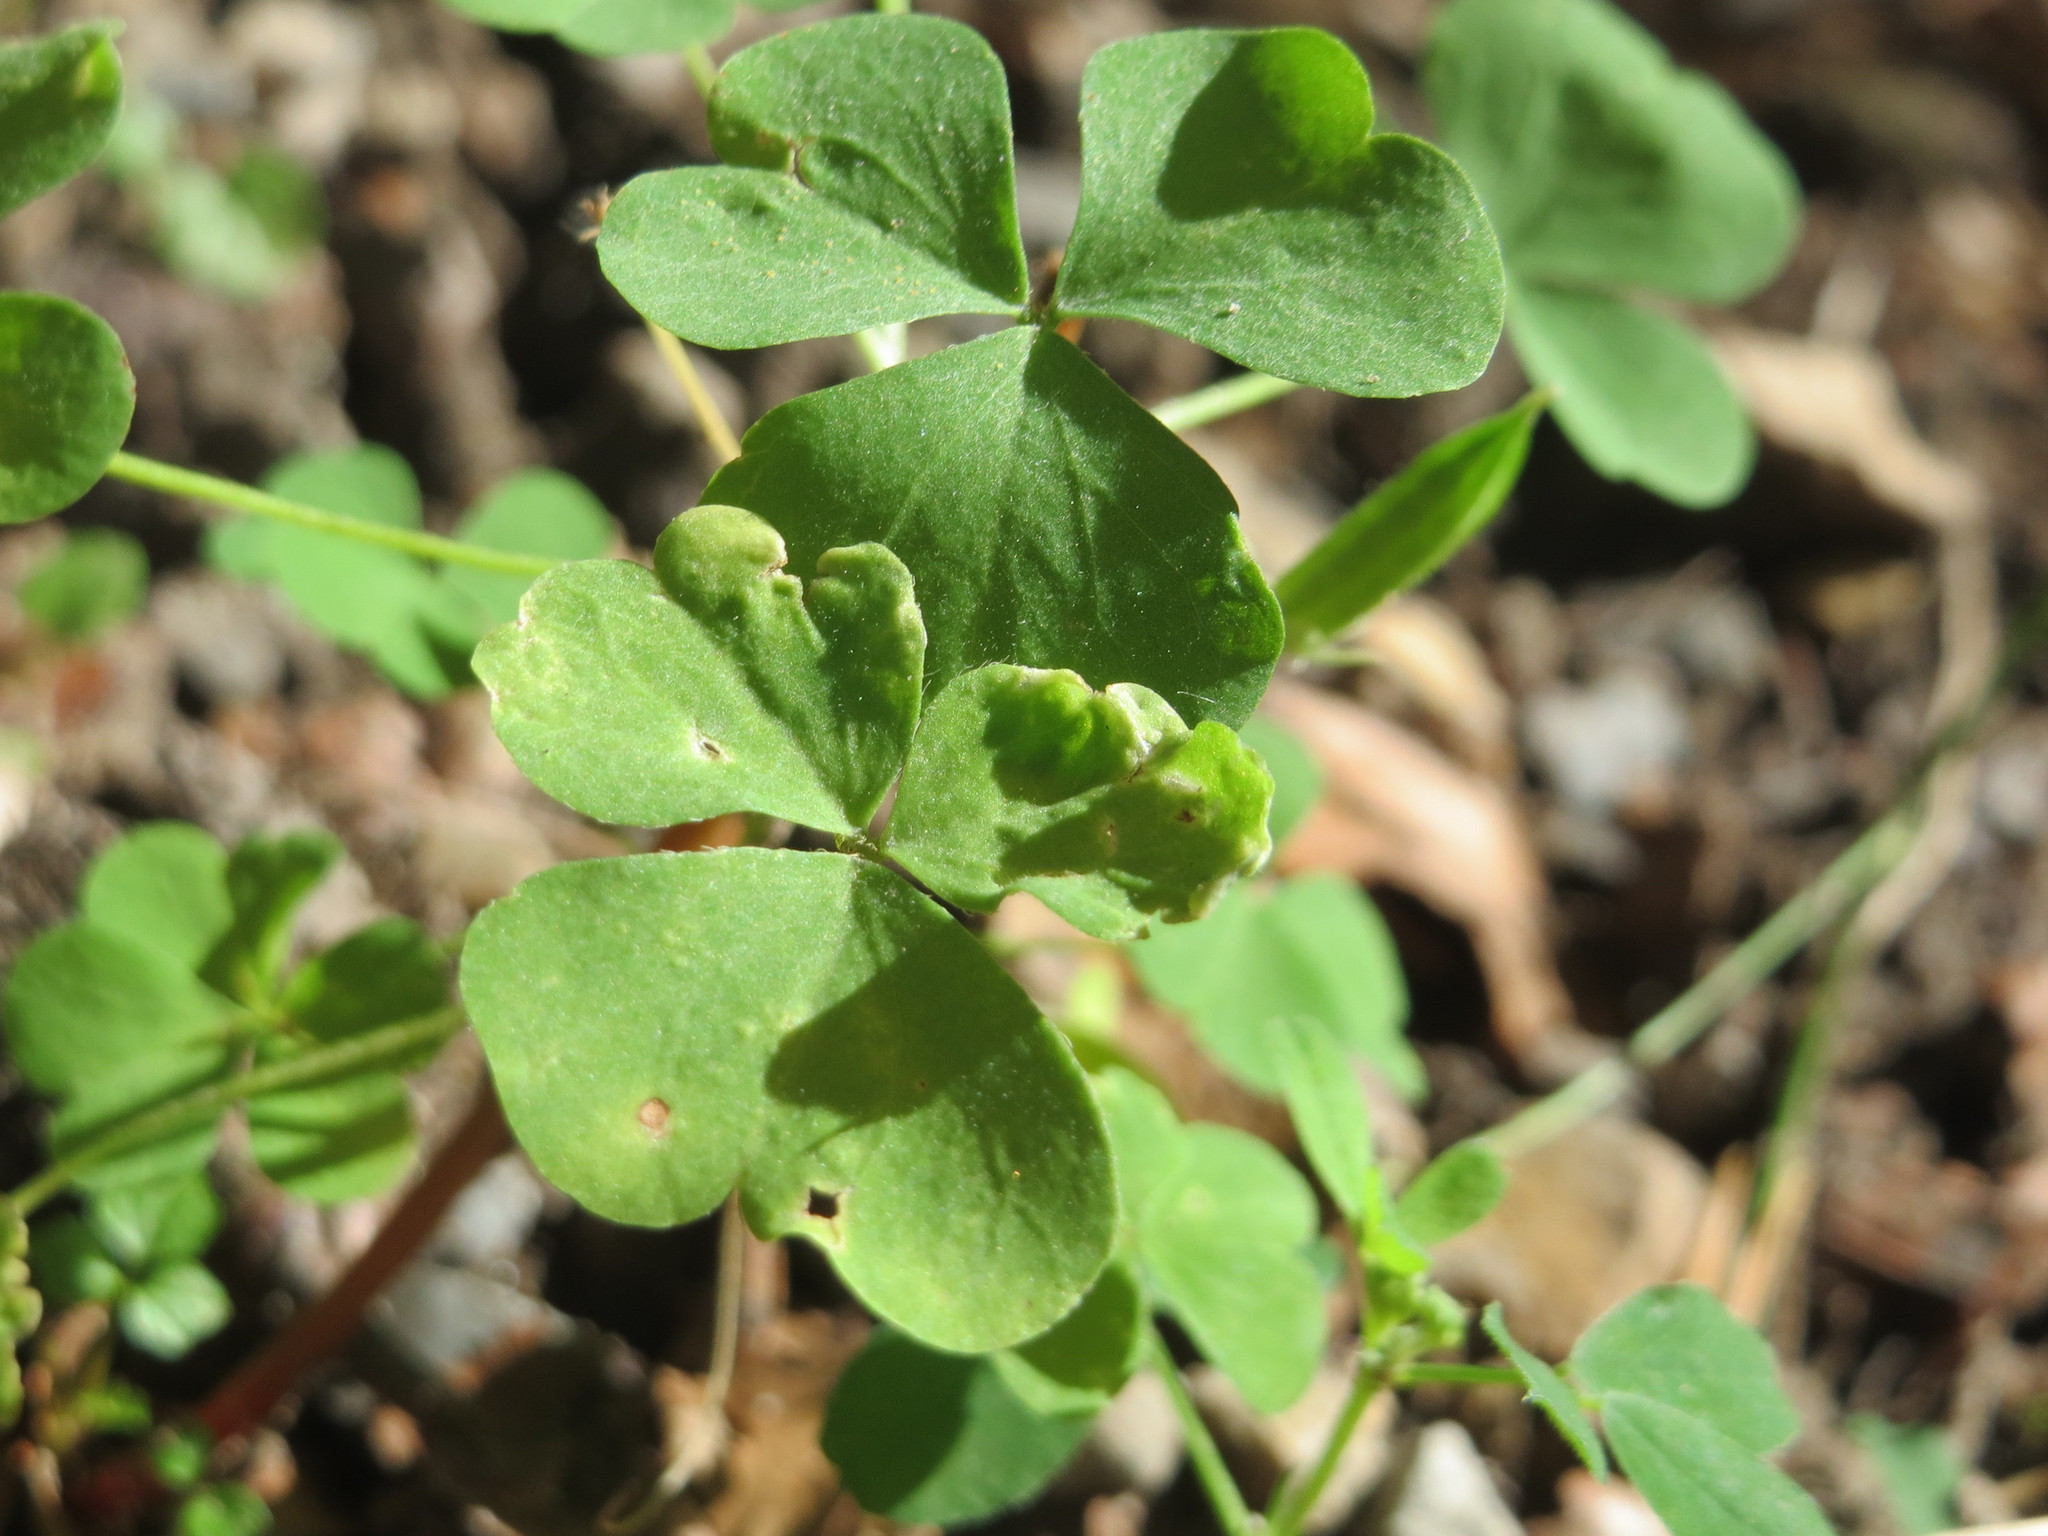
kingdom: Plantae
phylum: Tracheophyta
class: Magnoliopsida
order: Oxalidales
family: Oxalidaceae
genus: Oxalis
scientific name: Oxalis stricta
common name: Upright yellow-sorrel
